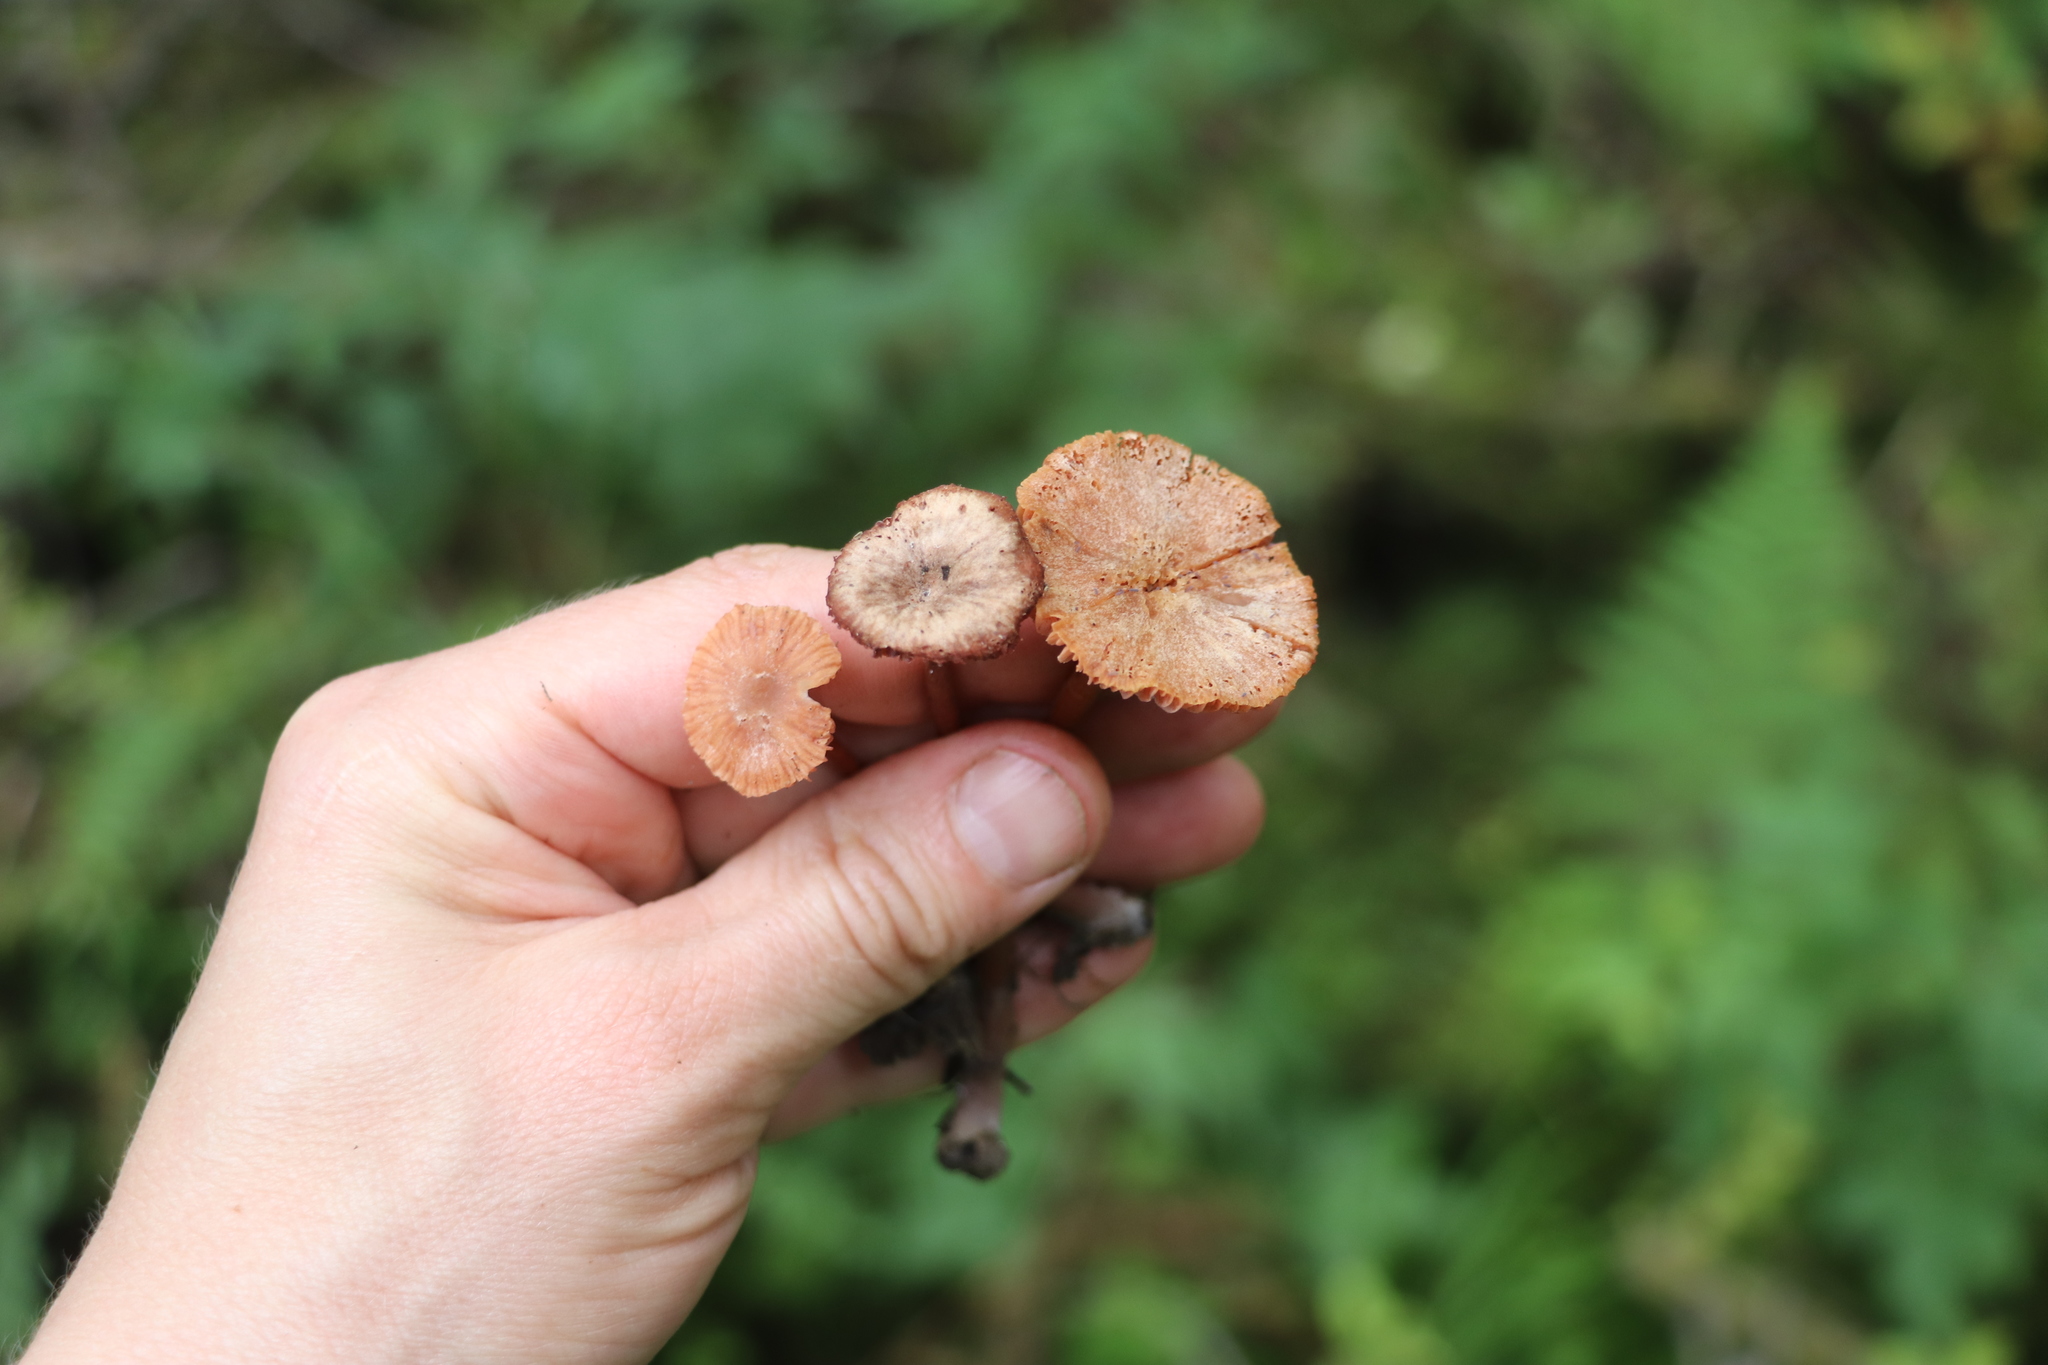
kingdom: Fungi
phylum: Basidiomycota
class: Agaricomycetes
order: Agaricales
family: Hydnangiaceae
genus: Laccaria
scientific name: Laccaria laccata
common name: Deceiver
